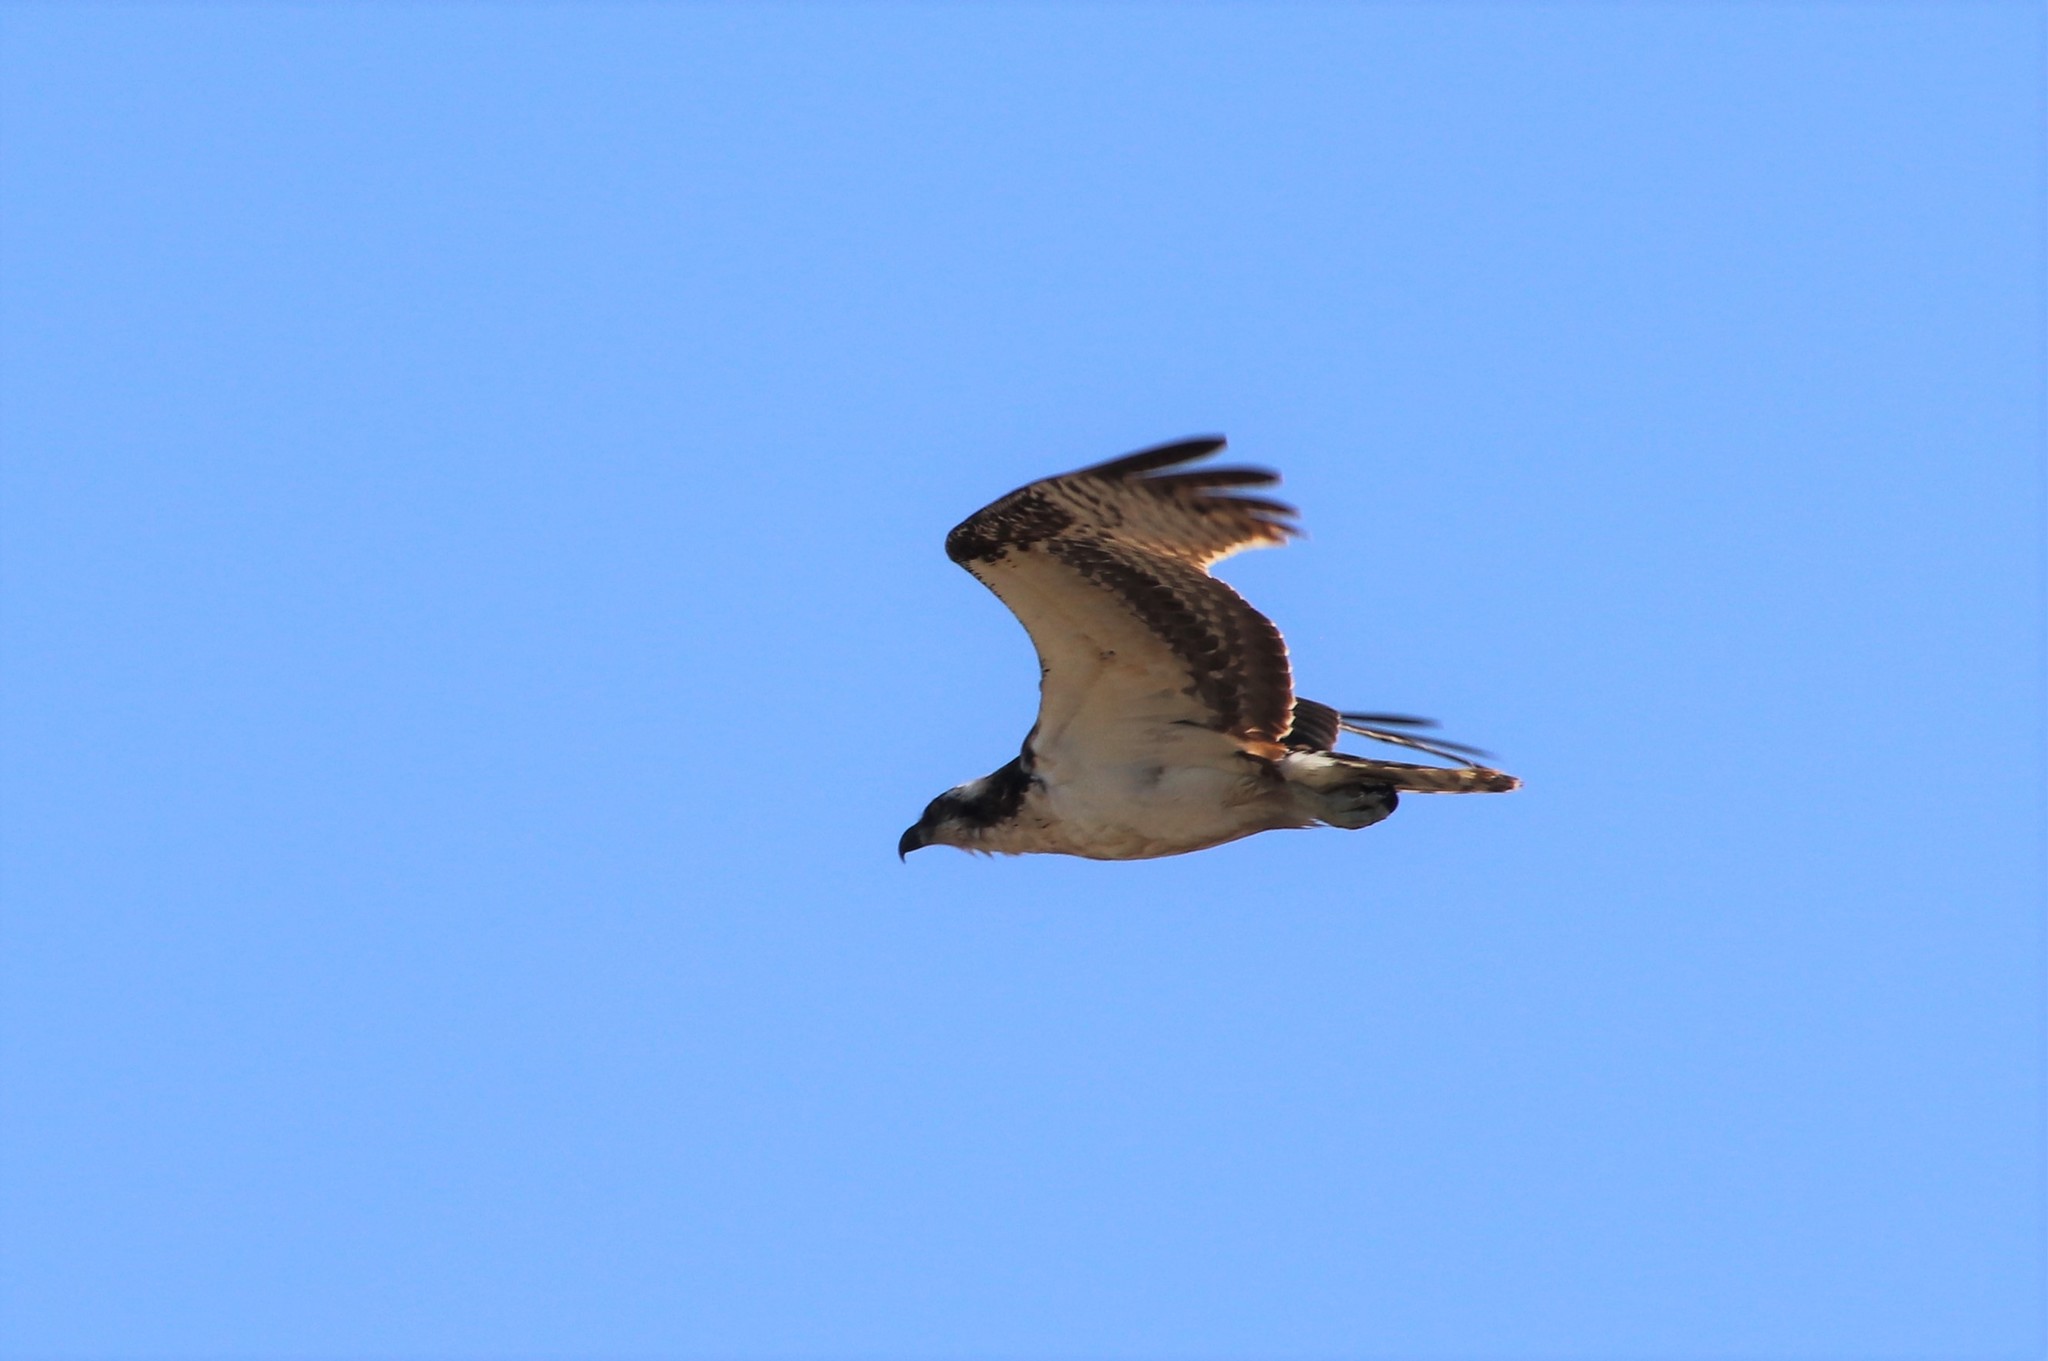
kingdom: Animalia
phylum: Chordata
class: Aves
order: Accipitriformes
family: Pandionidae
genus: Pandion
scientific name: Pandion haliaetus
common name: Osprey
